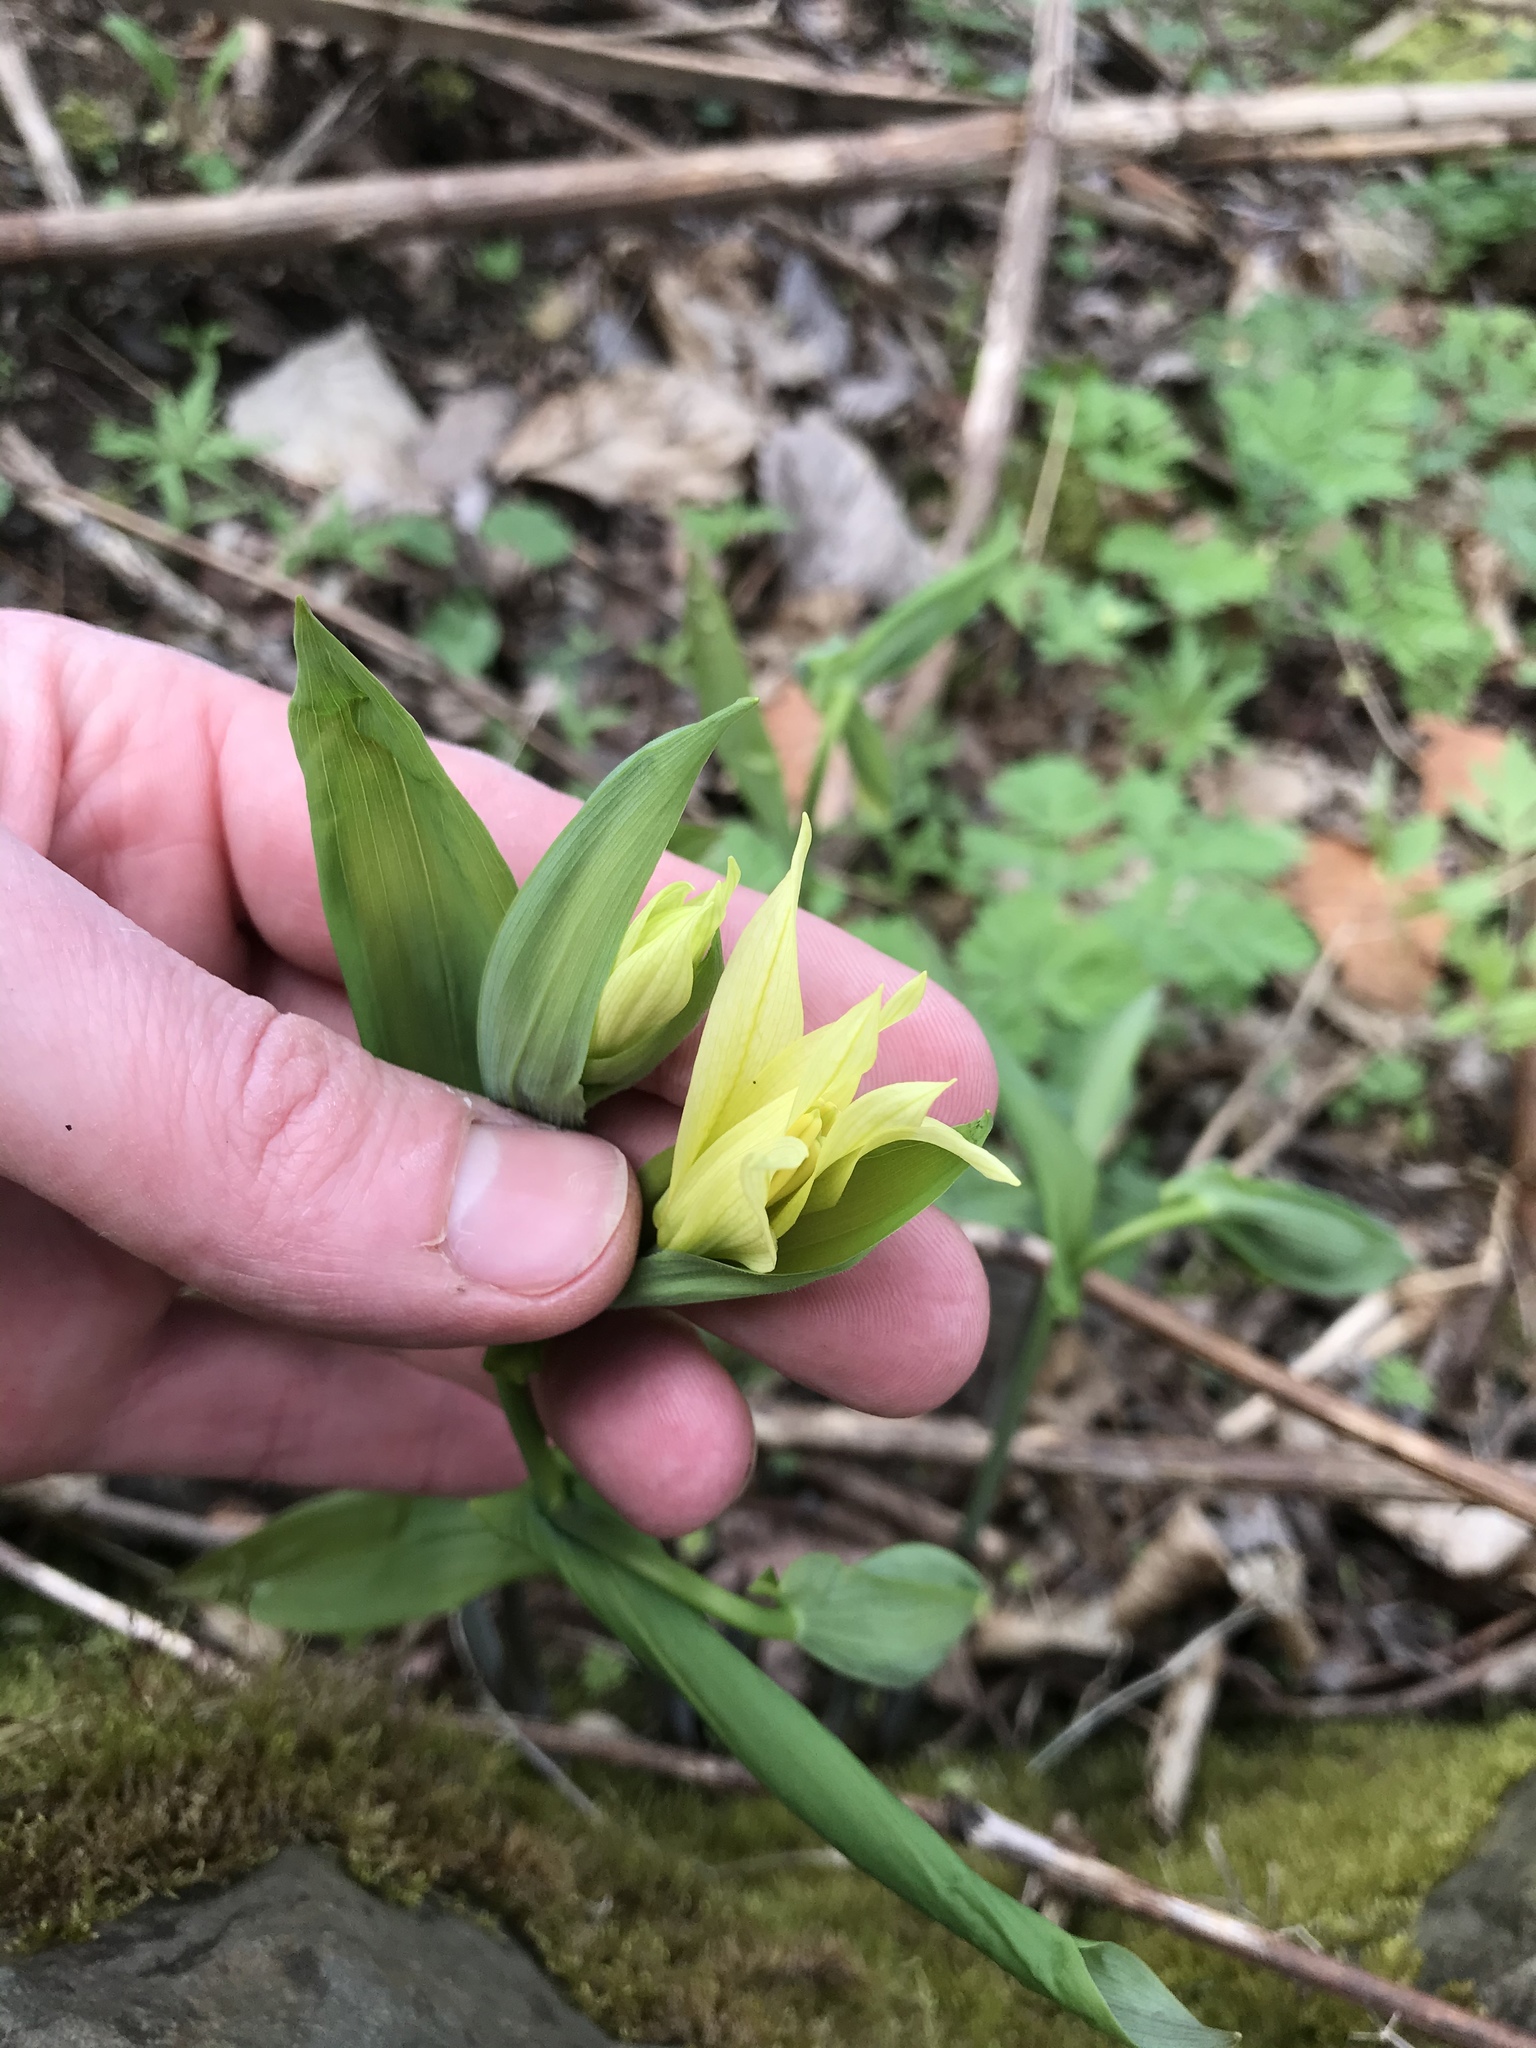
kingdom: Plantae
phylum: Tracheophyta
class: Liliopsida
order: Liliales
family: Colchicaceae
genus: Uvularia
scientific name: Uvularia grandiflora
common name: Bellwort
